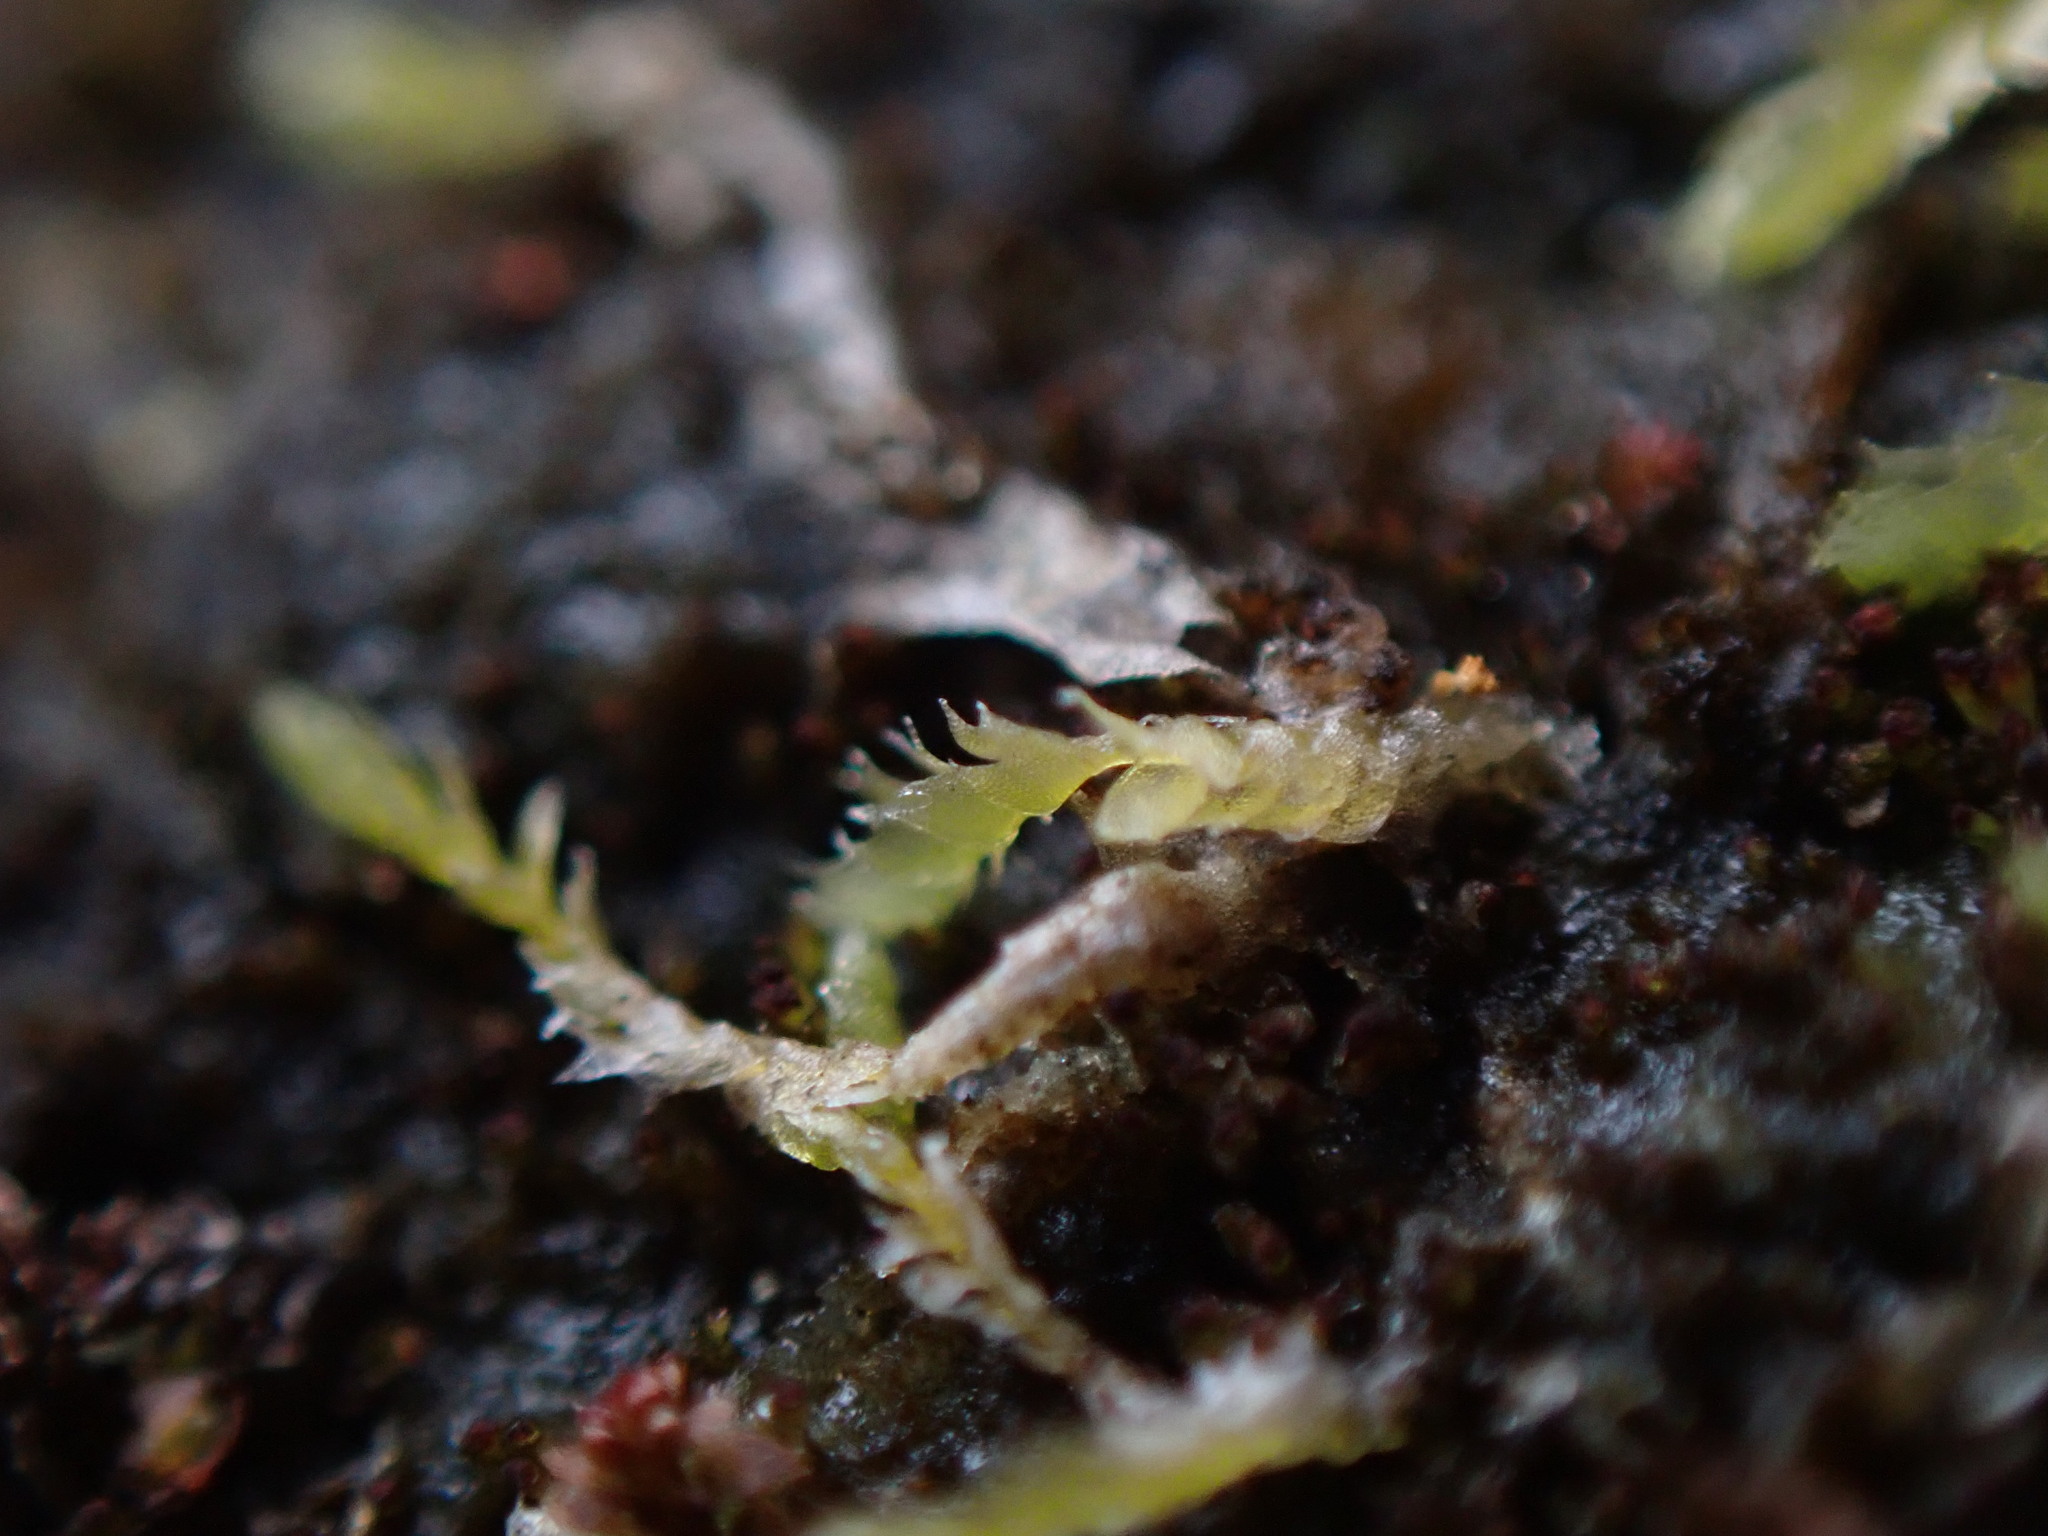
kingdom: Plantae
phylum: Marchantiophyta
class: Jungermanniopsida
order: Jungermanniales
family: Lophocoleaceae
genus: Lophocolea
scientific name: Lophocolea bidentata
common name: Bifid crestwort
